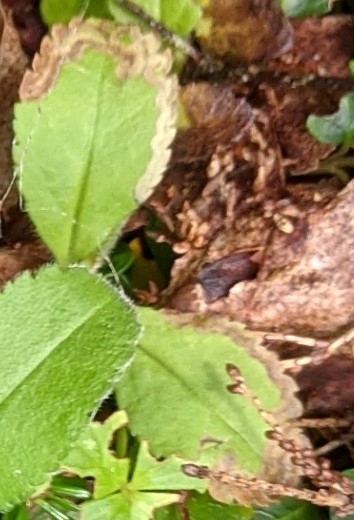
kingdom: Animalia
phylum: Arthropoda
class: Insecta
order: Diptera
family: Agromyzidae
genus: Phytomyza
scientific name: Phytomyza crassiseta
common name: Leaf-miner fly
